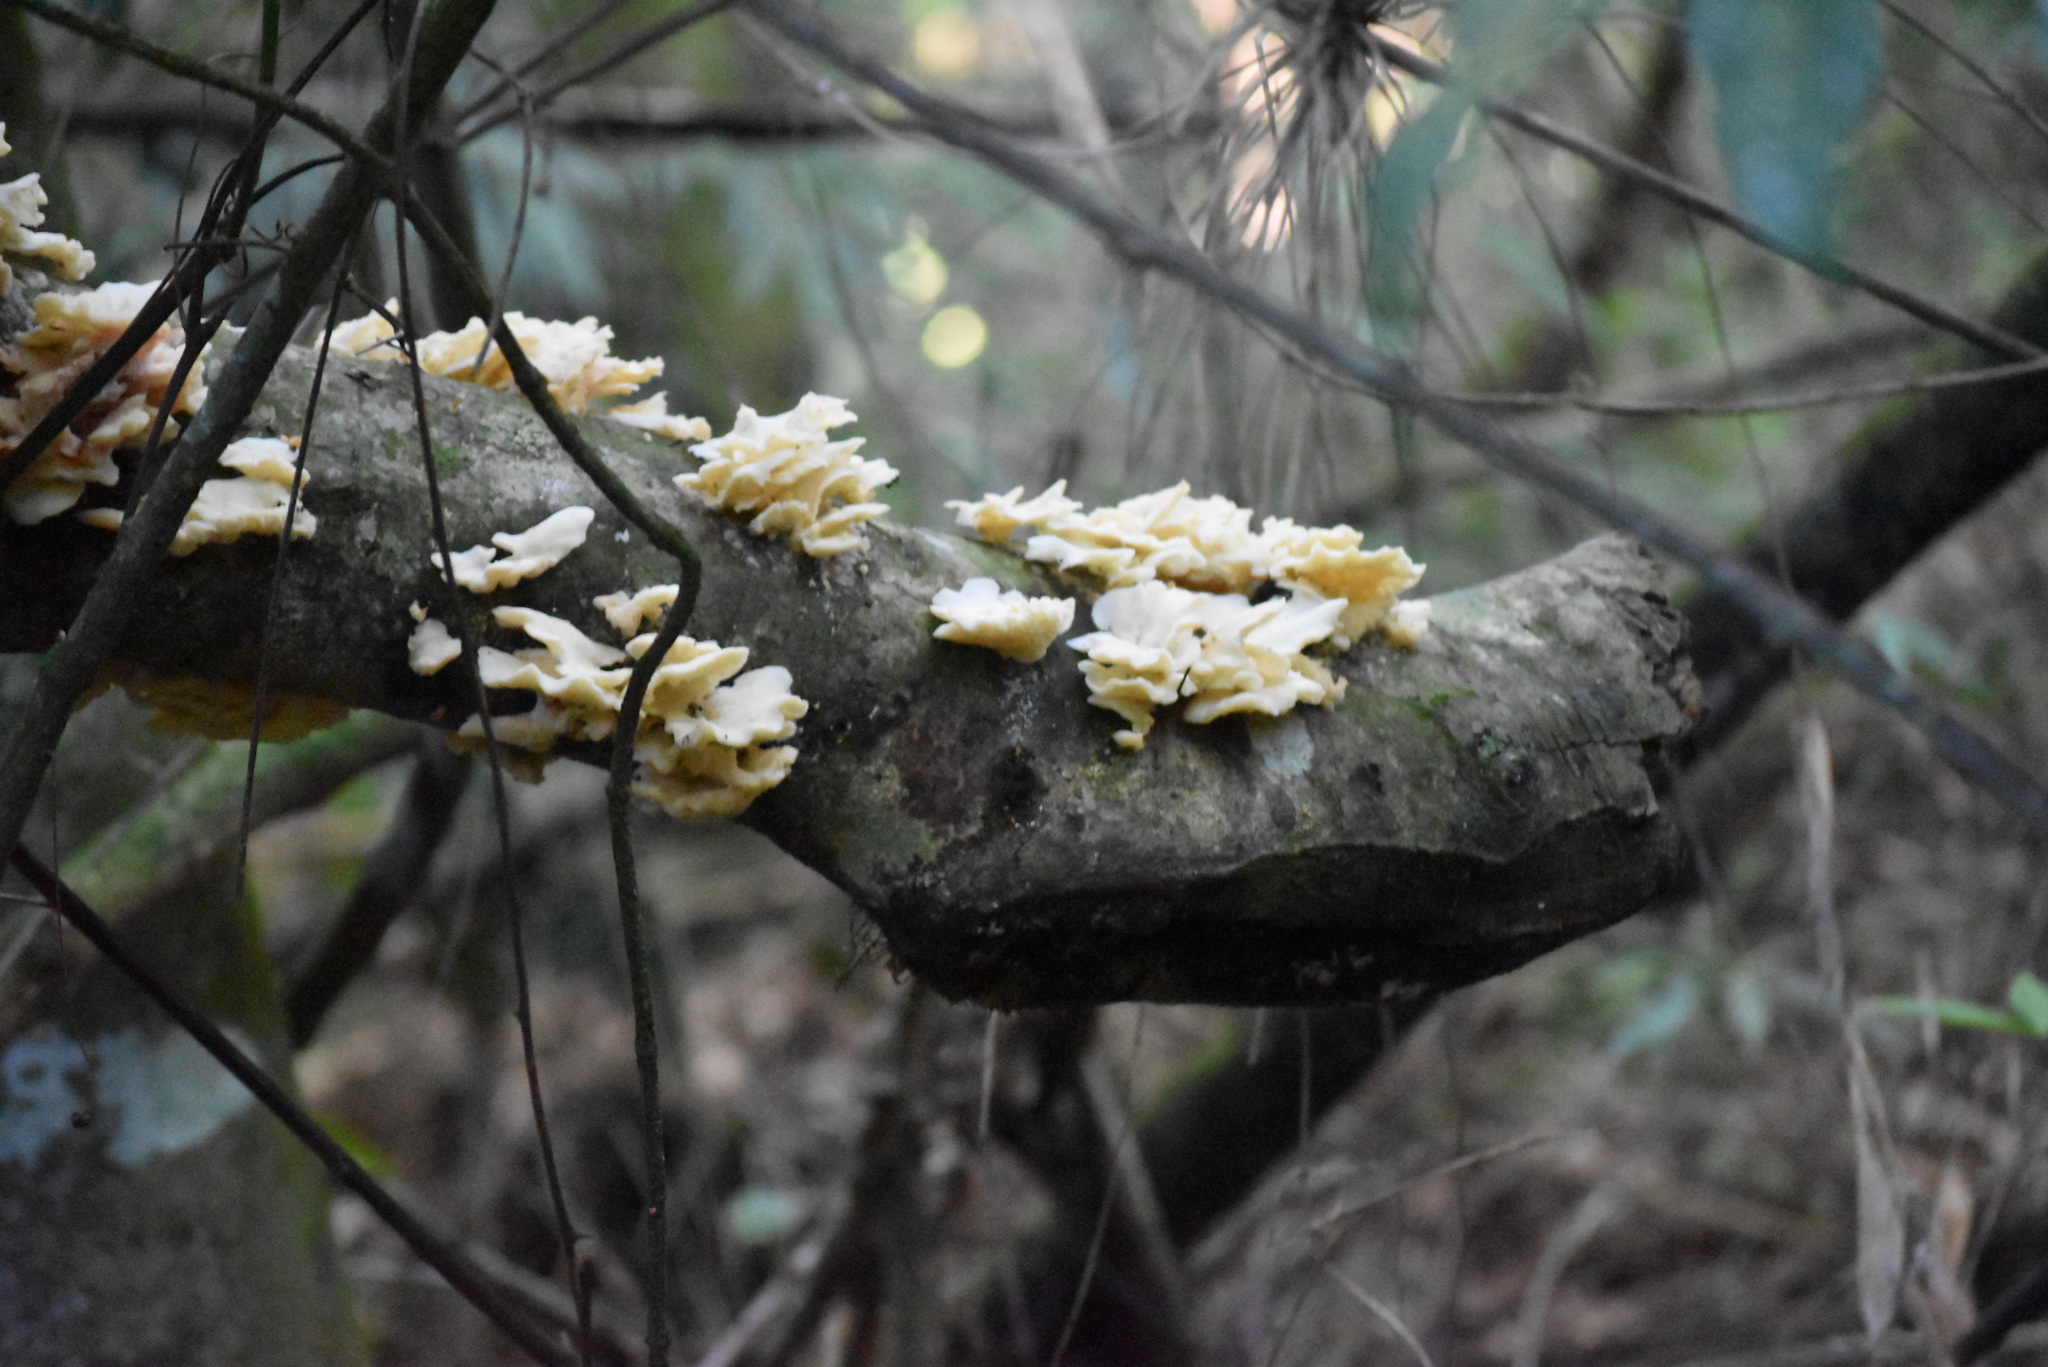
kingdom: Fungi
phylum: Basidiomycota
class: Agaricomycetes
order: Polyporales
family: Polyporaceae
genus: Favolus
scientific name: Favolus tenuiculus
